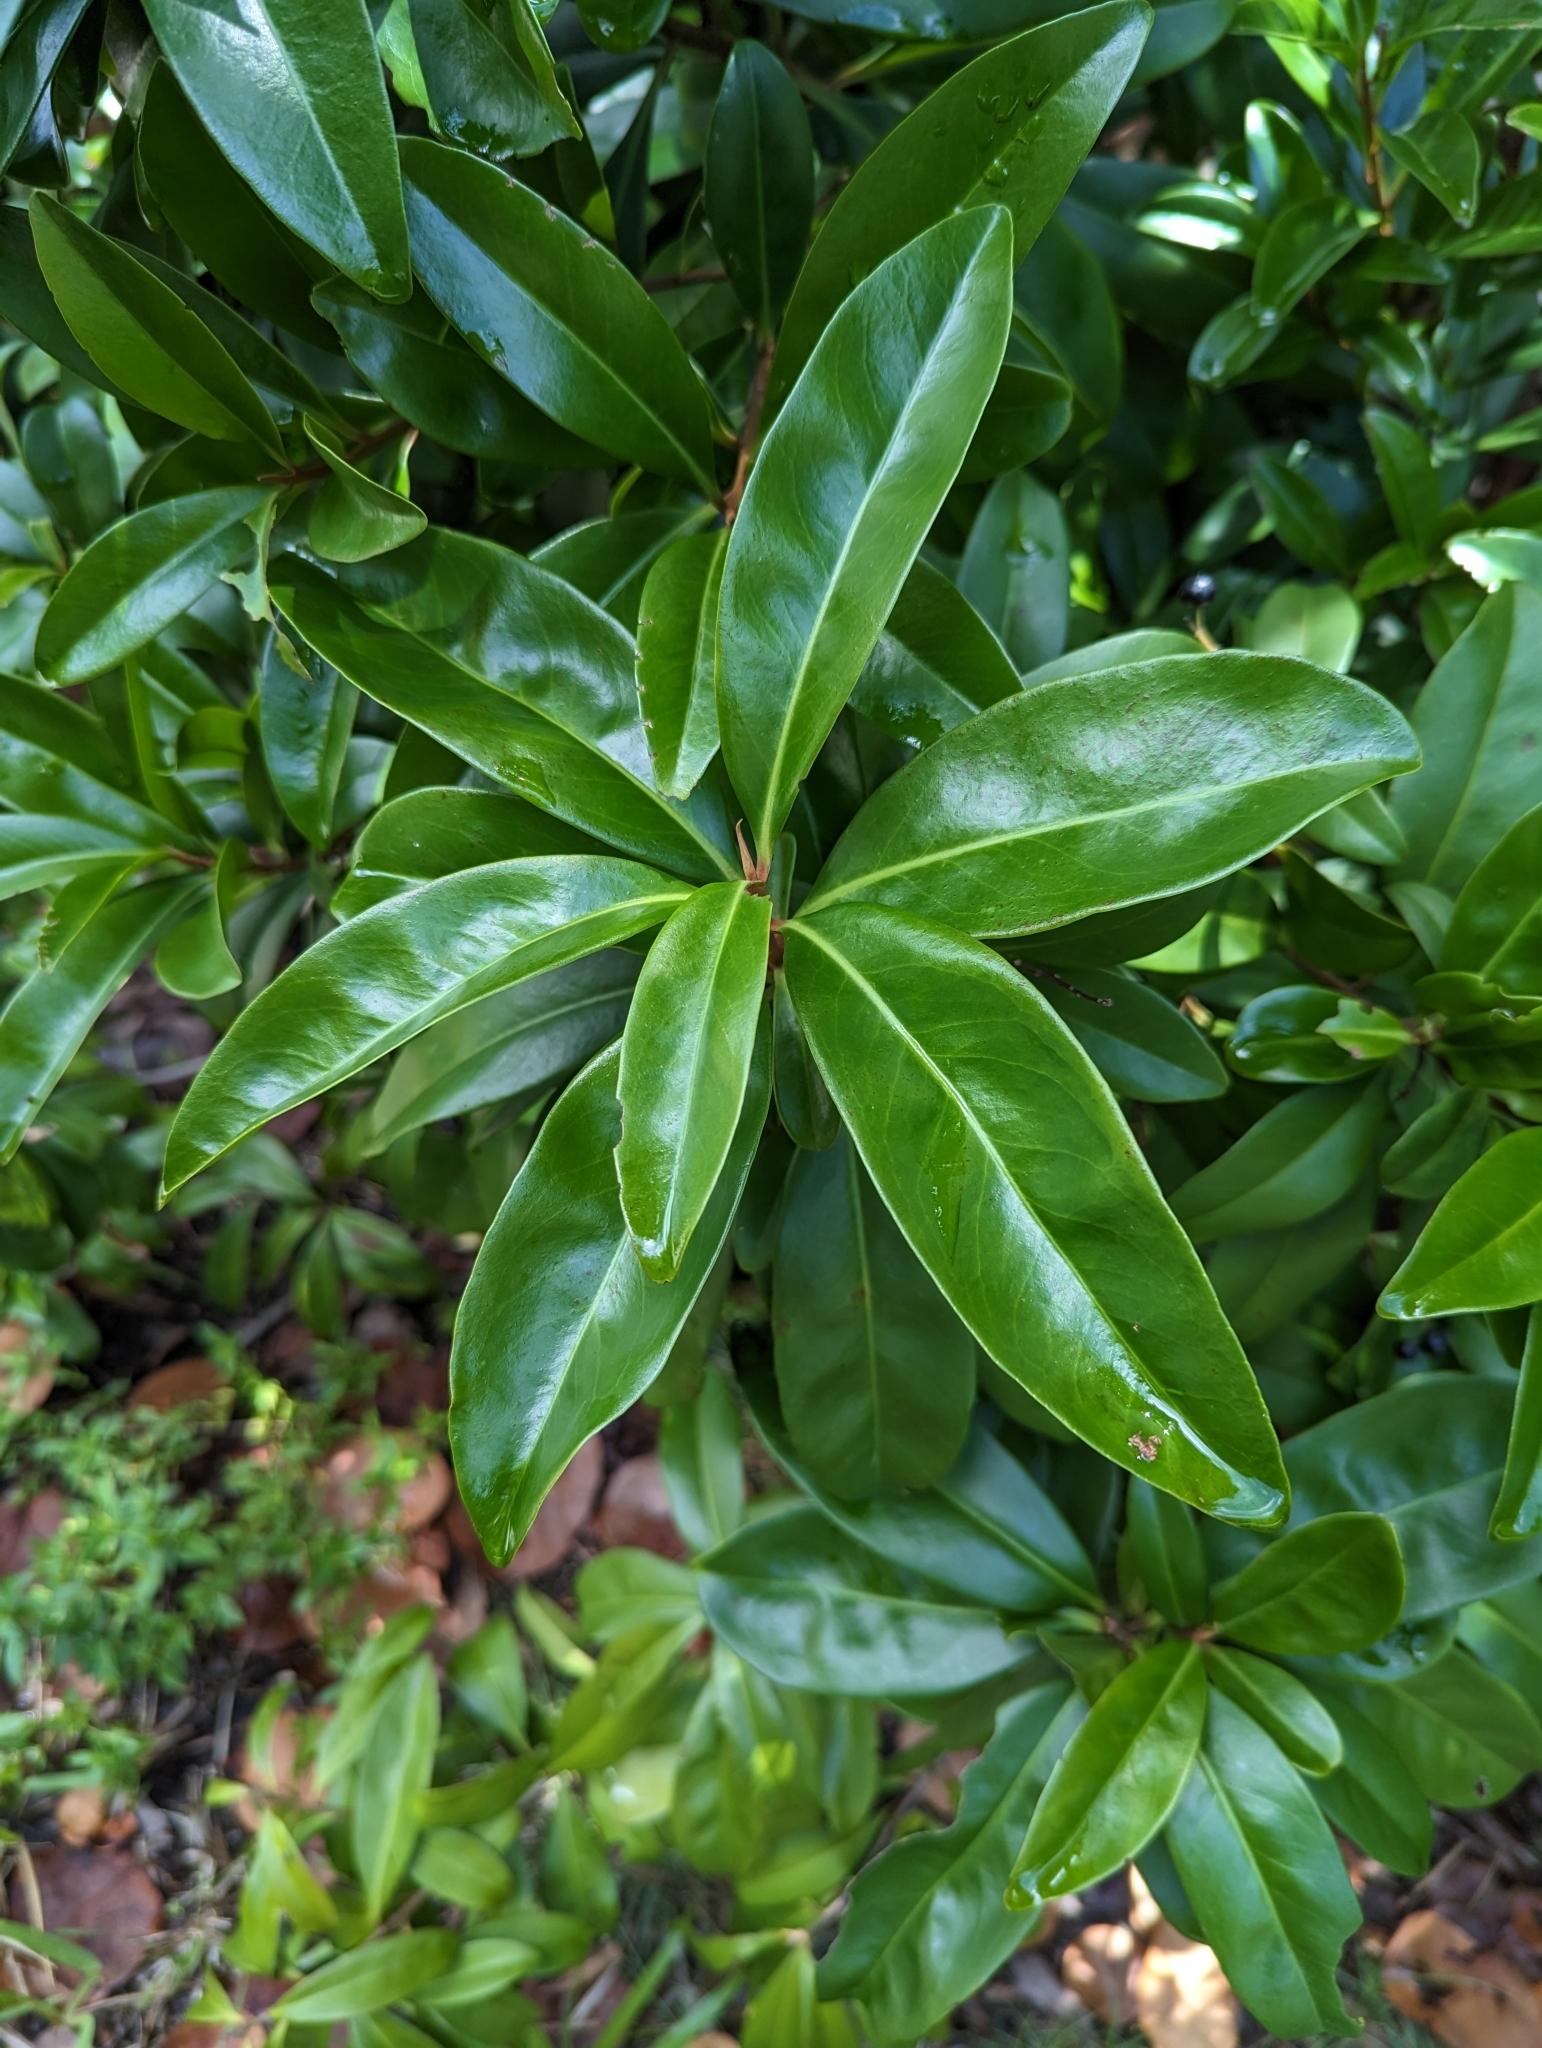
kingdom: Plantae
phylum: Tracheophyta
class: Magnoliopsida
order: Ericales
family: Primulaceae
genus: Ardisia
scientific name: Ardisia escallonioides
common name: Island marlberry
